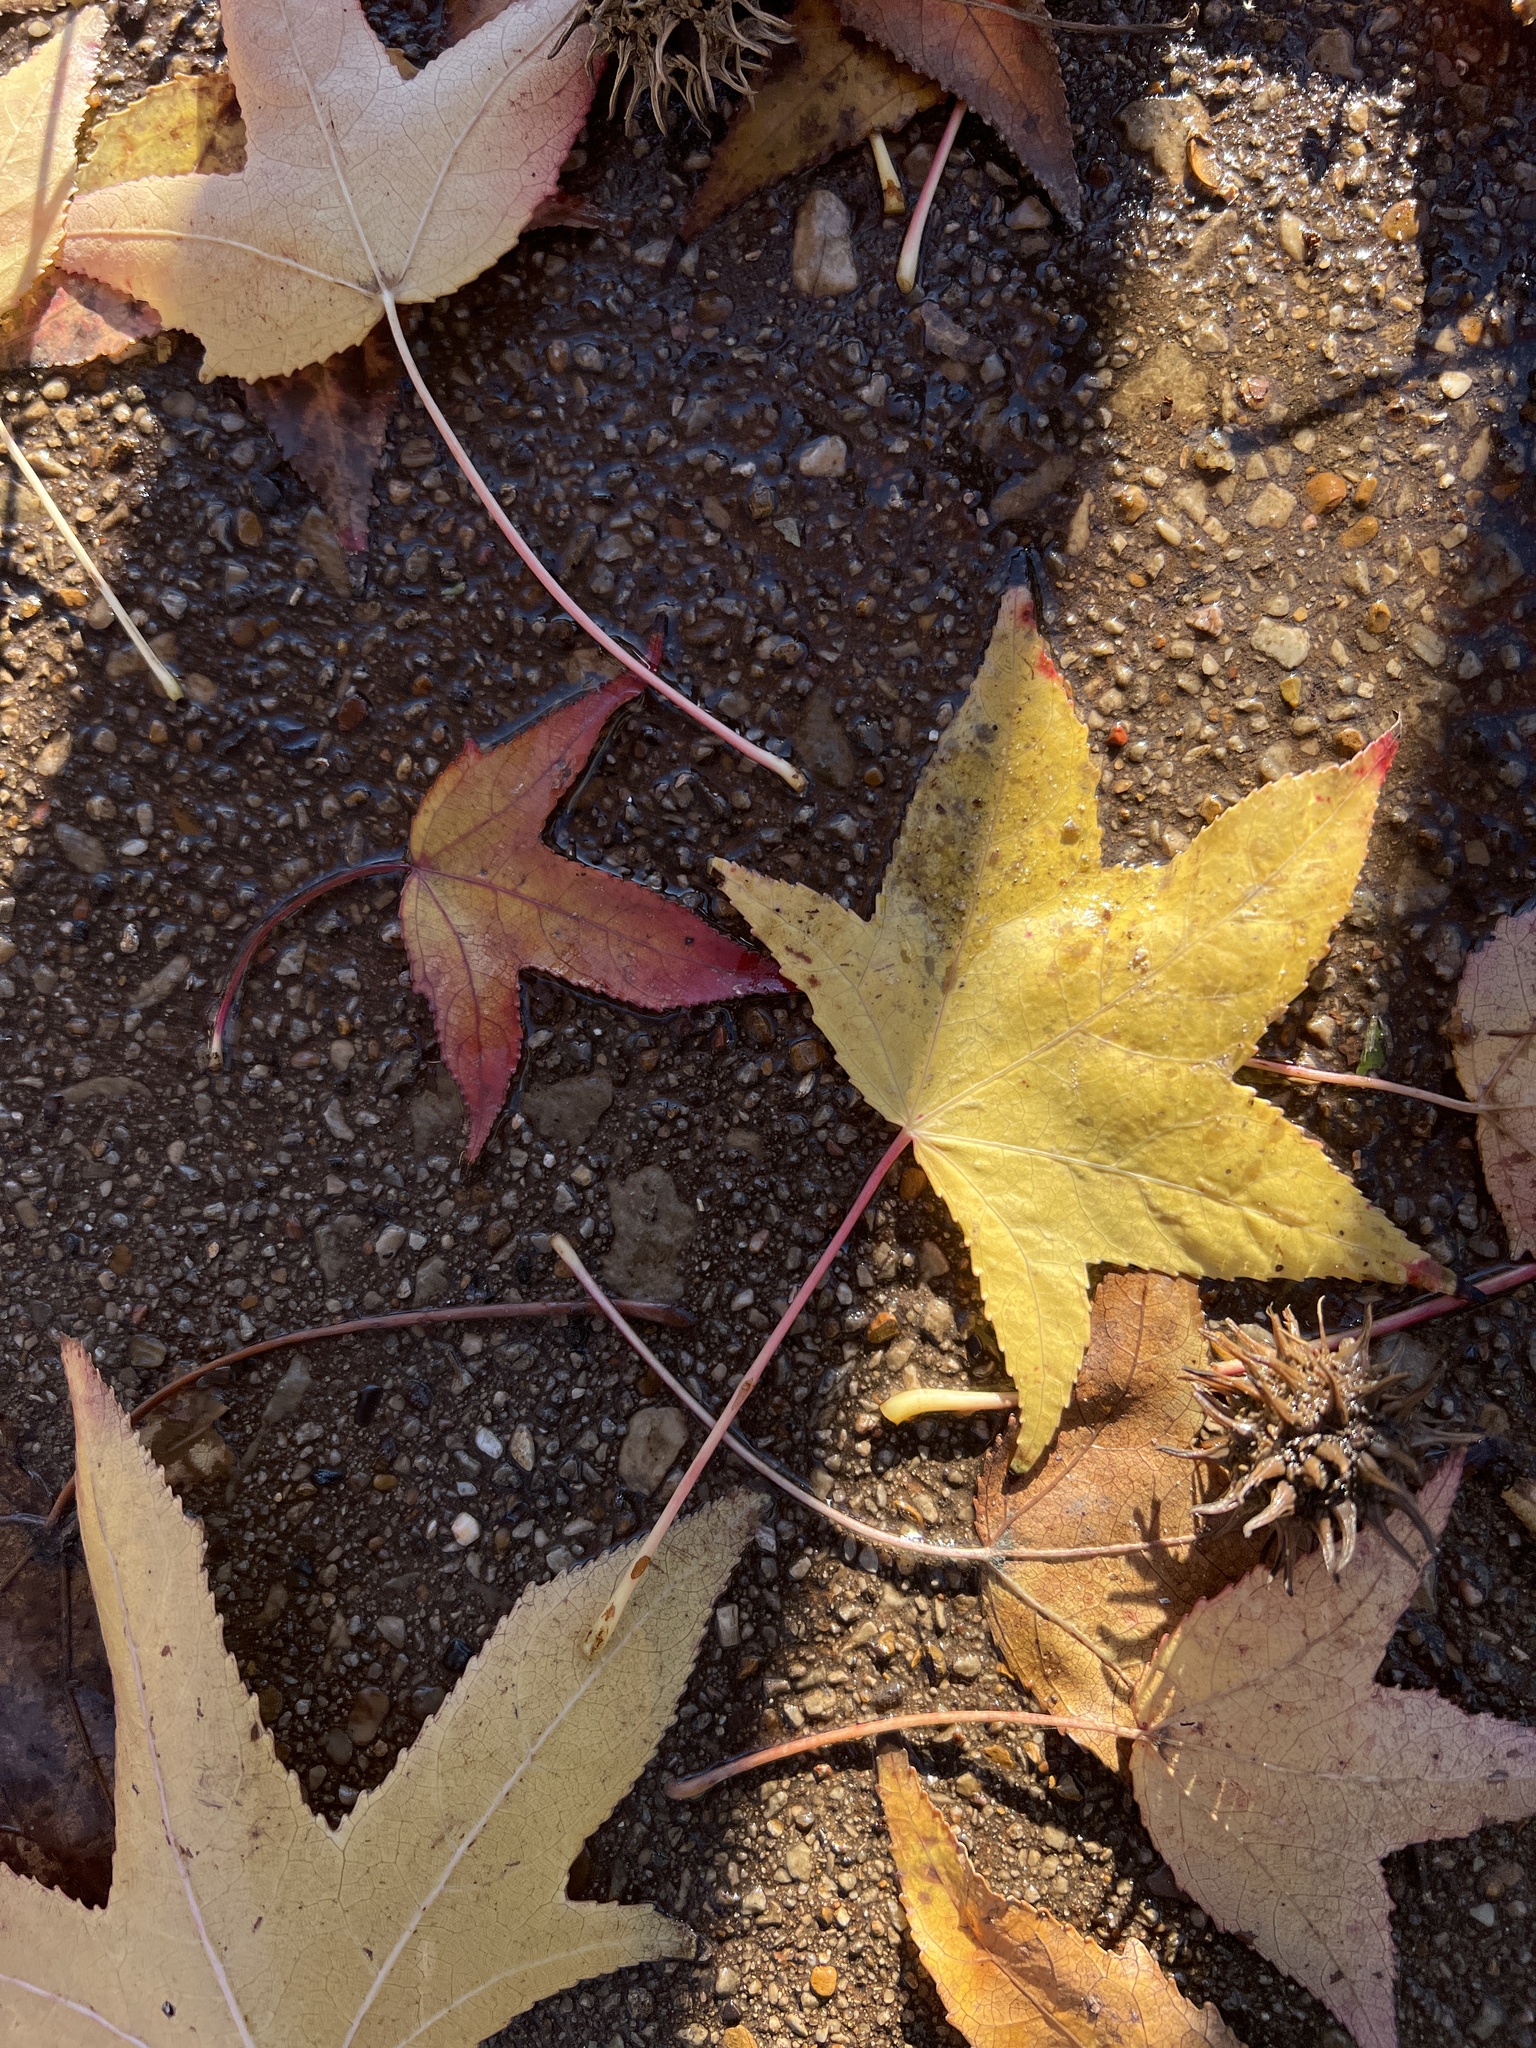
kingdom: Plantae
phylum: Tracheophyta
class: Magnoliopsida
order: Saxifragales
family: Altingiaceae
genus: Liquidambar
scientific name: Liquidambar styraciflua
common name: Sweet gum
